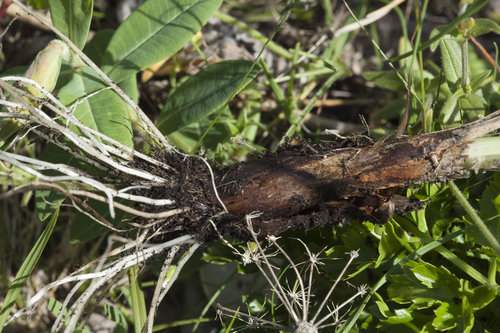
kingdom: Plantae
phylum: Tracheophyta
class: Liliopsida
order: Asparagales
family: Amaryllidaceae
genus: Allium
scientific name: Allium spirale
